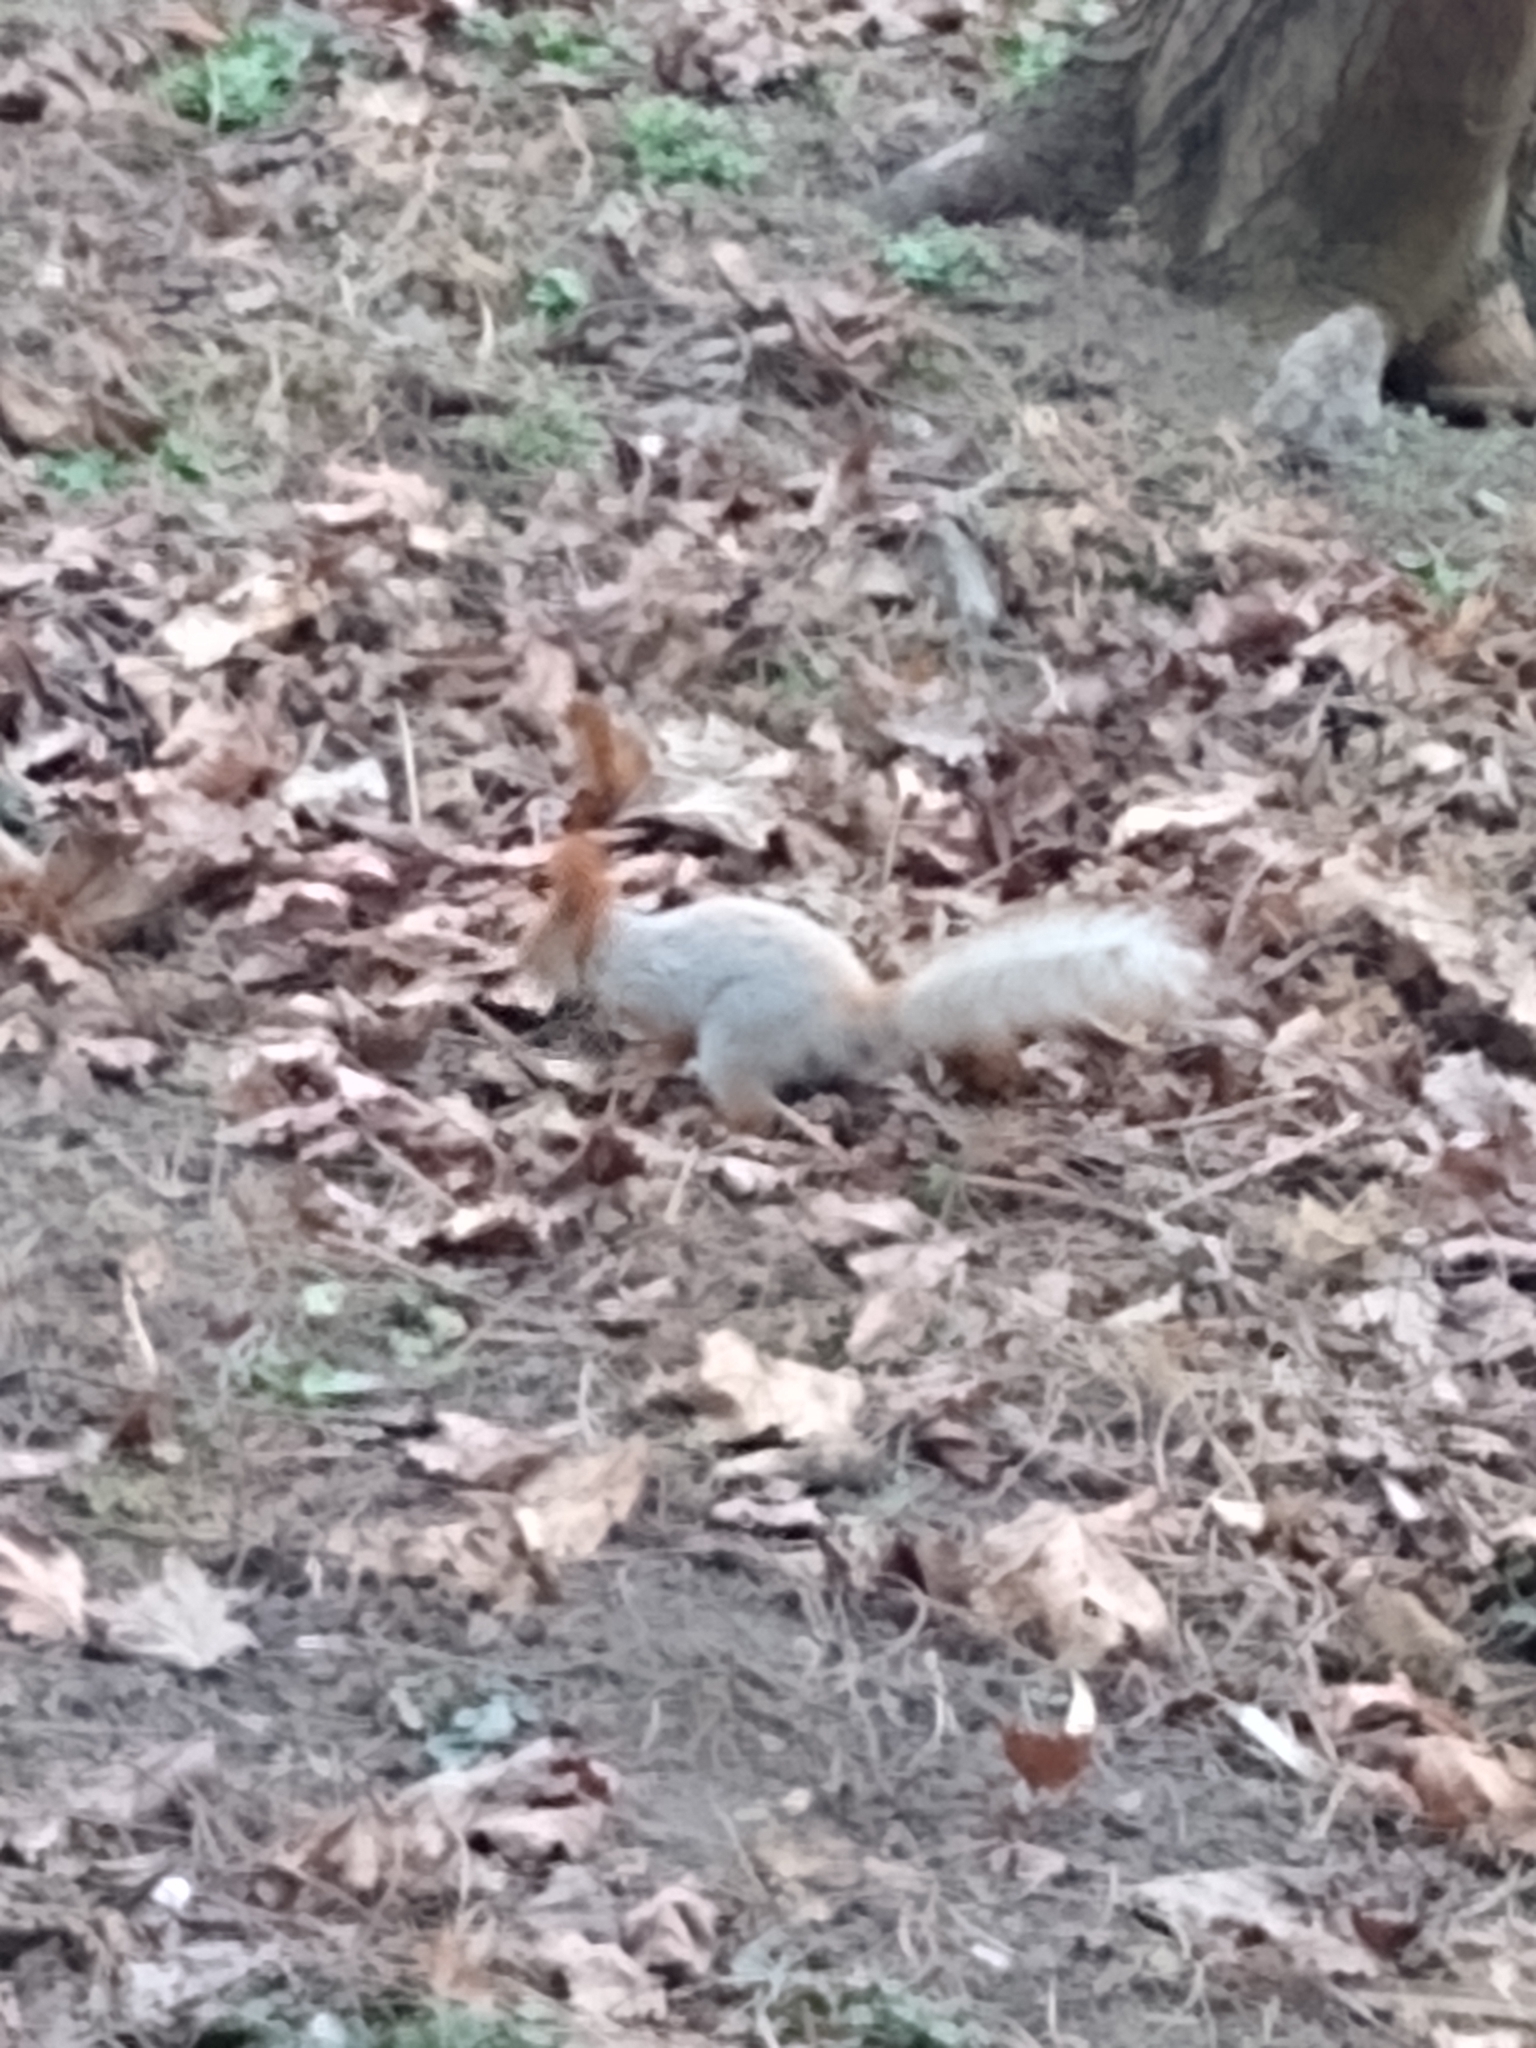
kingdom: Animalia
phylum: Chordata
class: Mammalia
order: Rodentia
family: Sciuridae
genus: Sciurus
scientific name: Sciurus vulgaris
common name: Eurasian red squirrel
